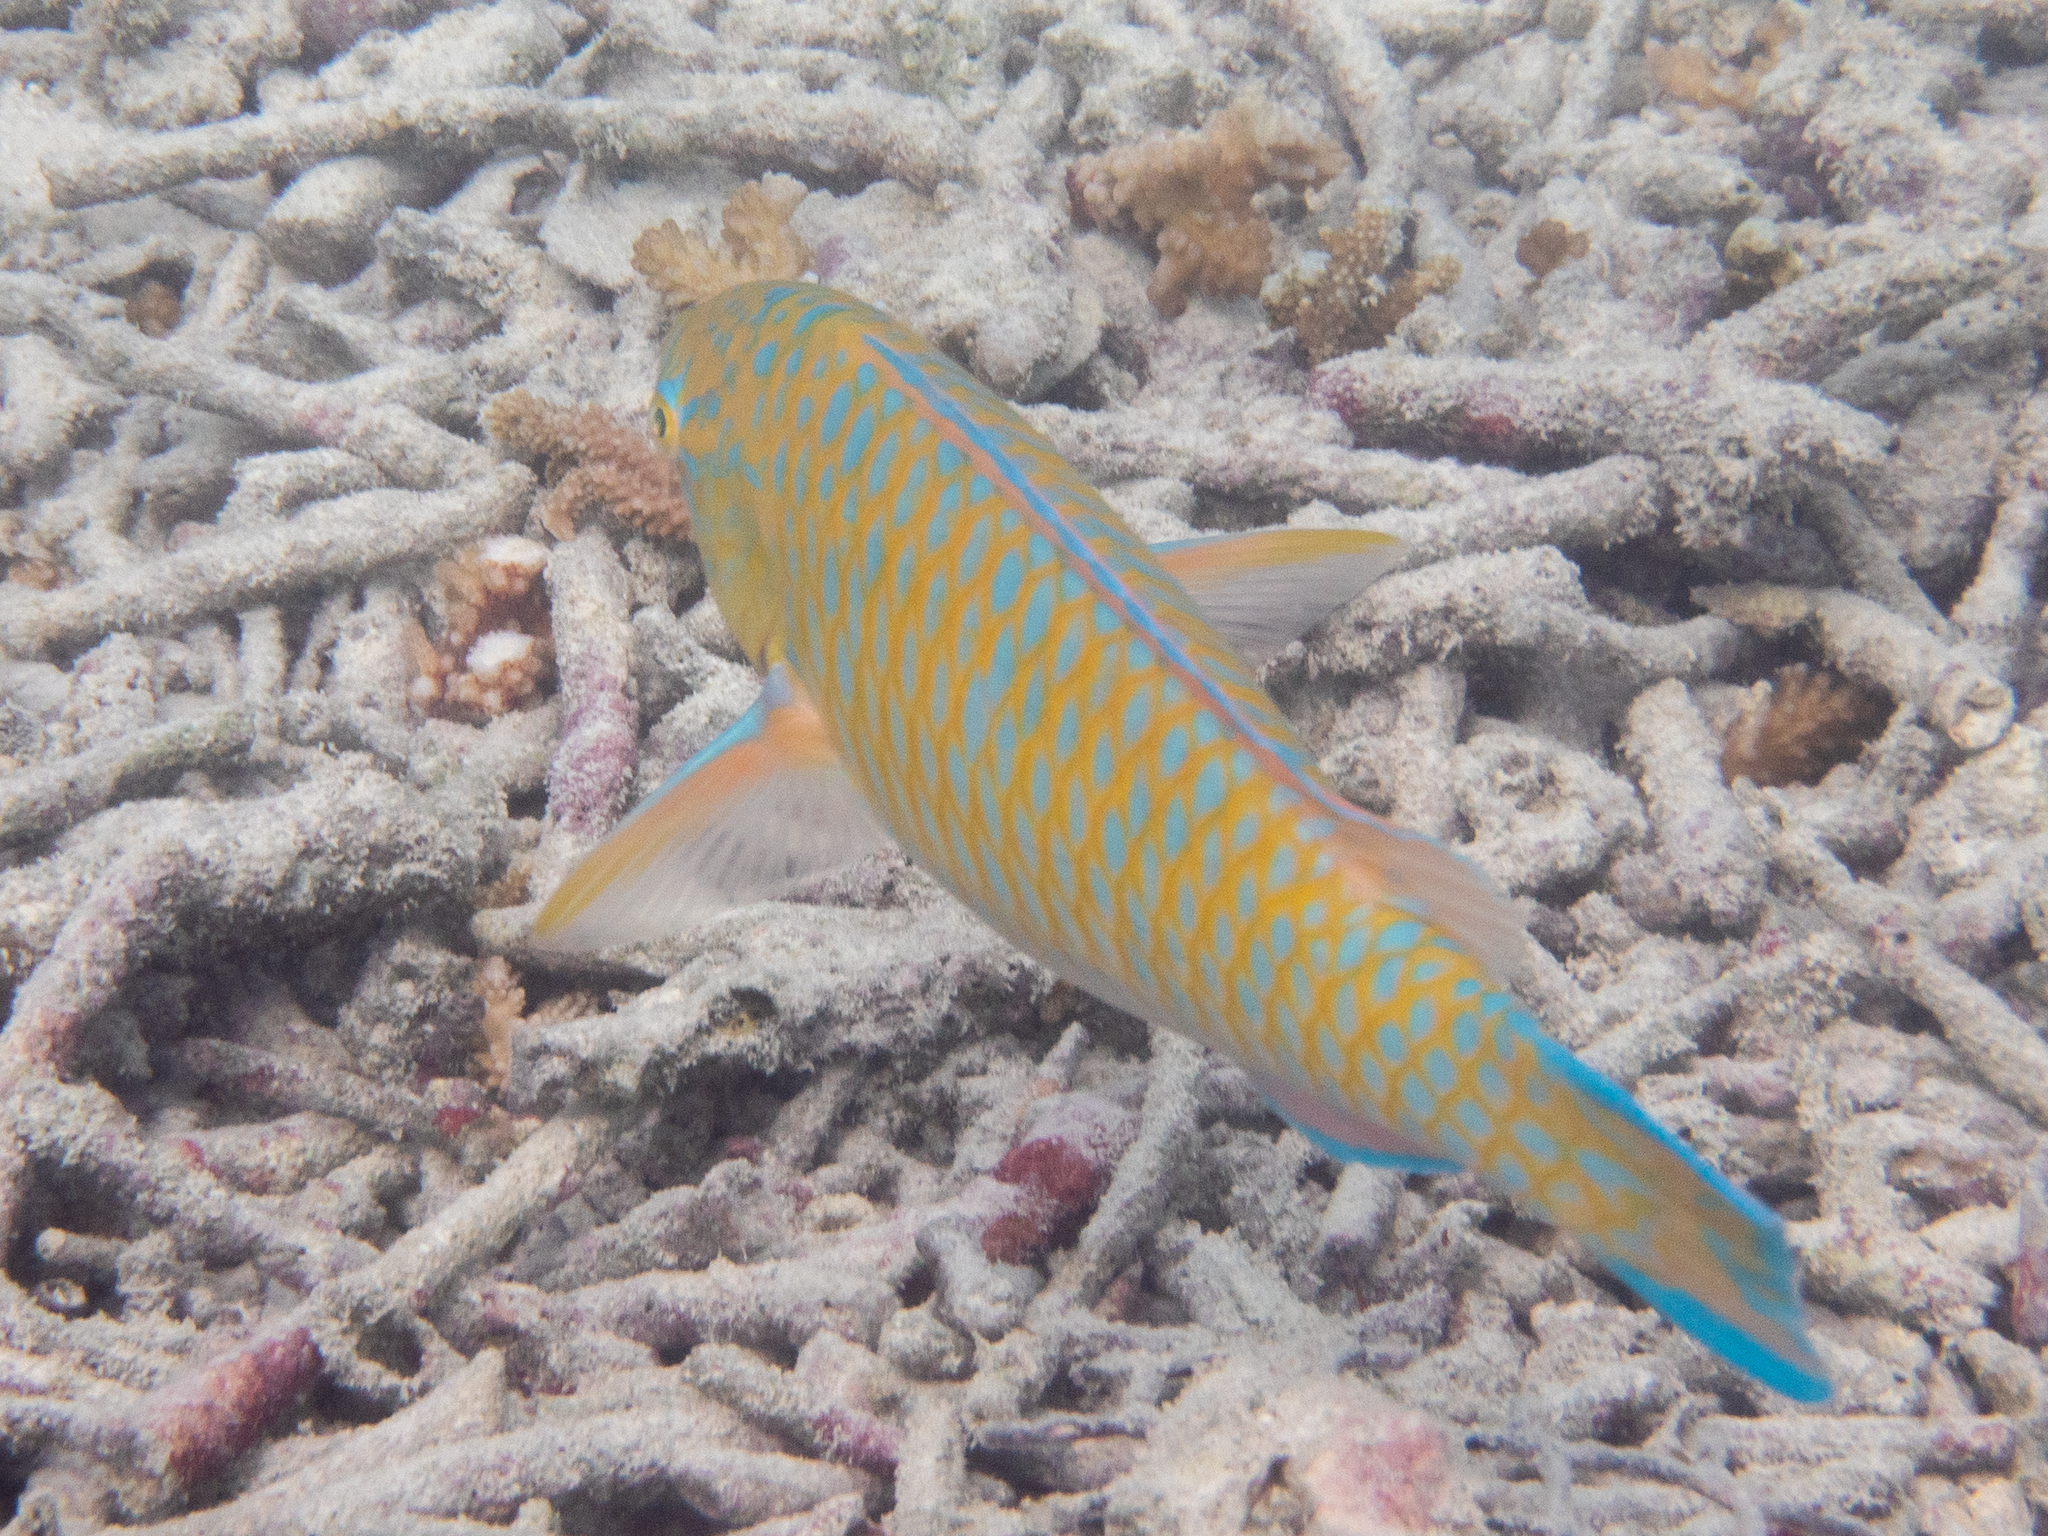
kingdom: Animalia
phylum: Chordata
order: Perciformes
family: Scaridae
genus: Scarus
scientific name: Scarus ghobban
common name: Blue-barred parrotfish
